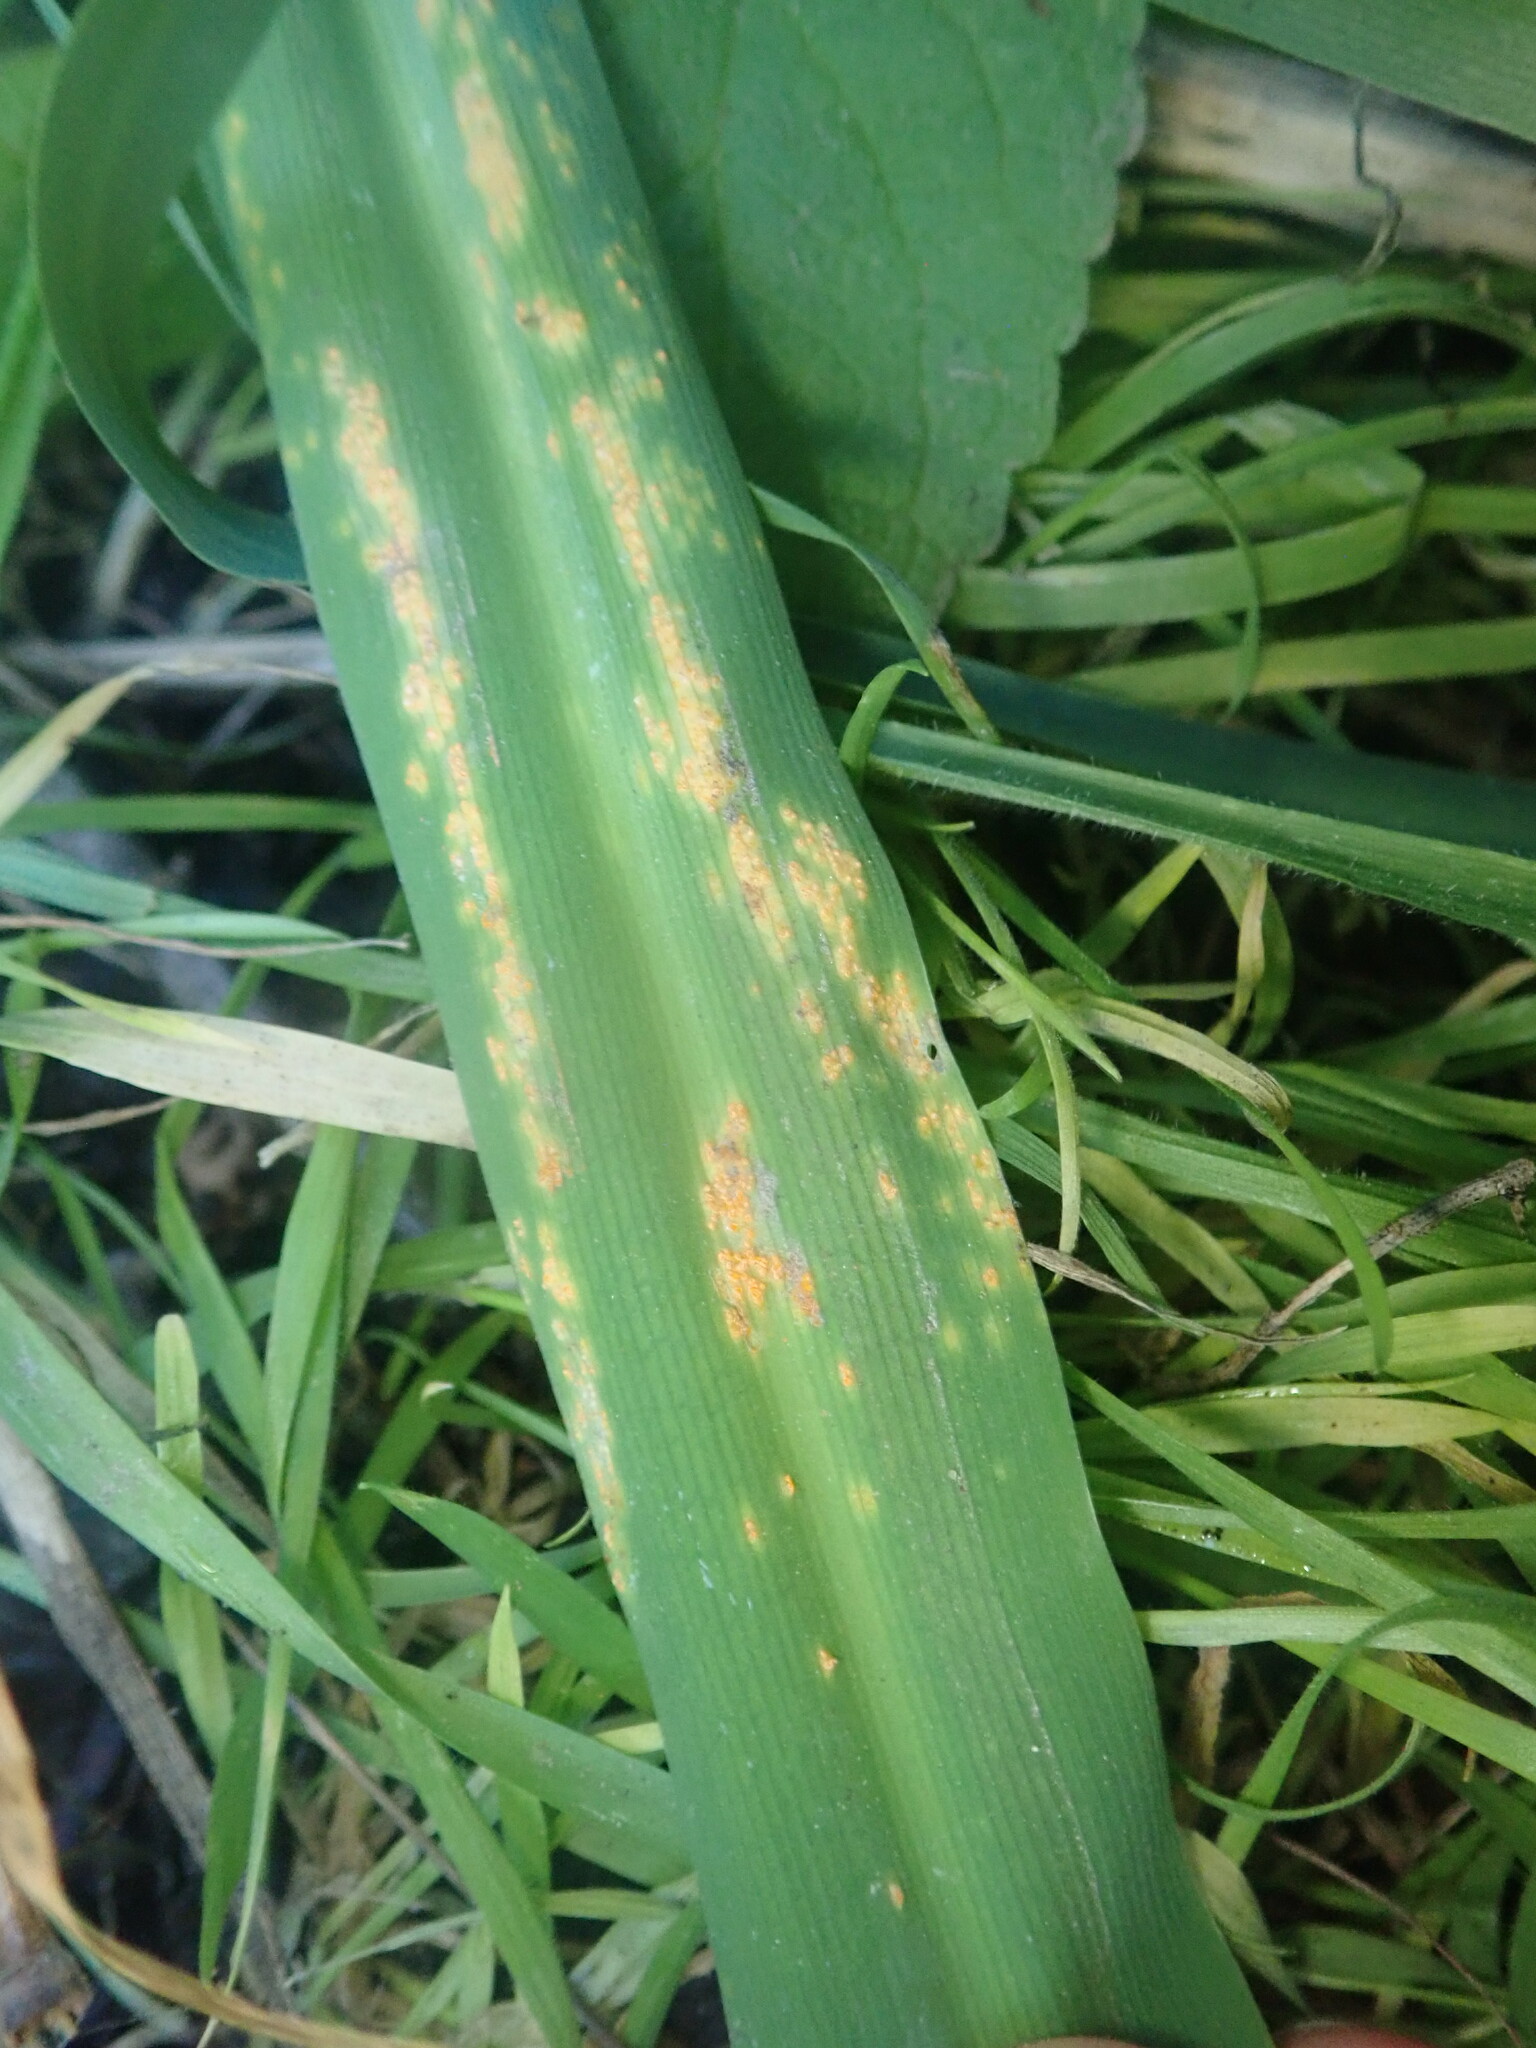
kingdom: Fungi
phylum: Basidiomycota
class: Pucciniomycetes
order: Pucciniales
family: Pucciniaceae
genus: Uromyces
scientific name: Uromyces chlorogali
